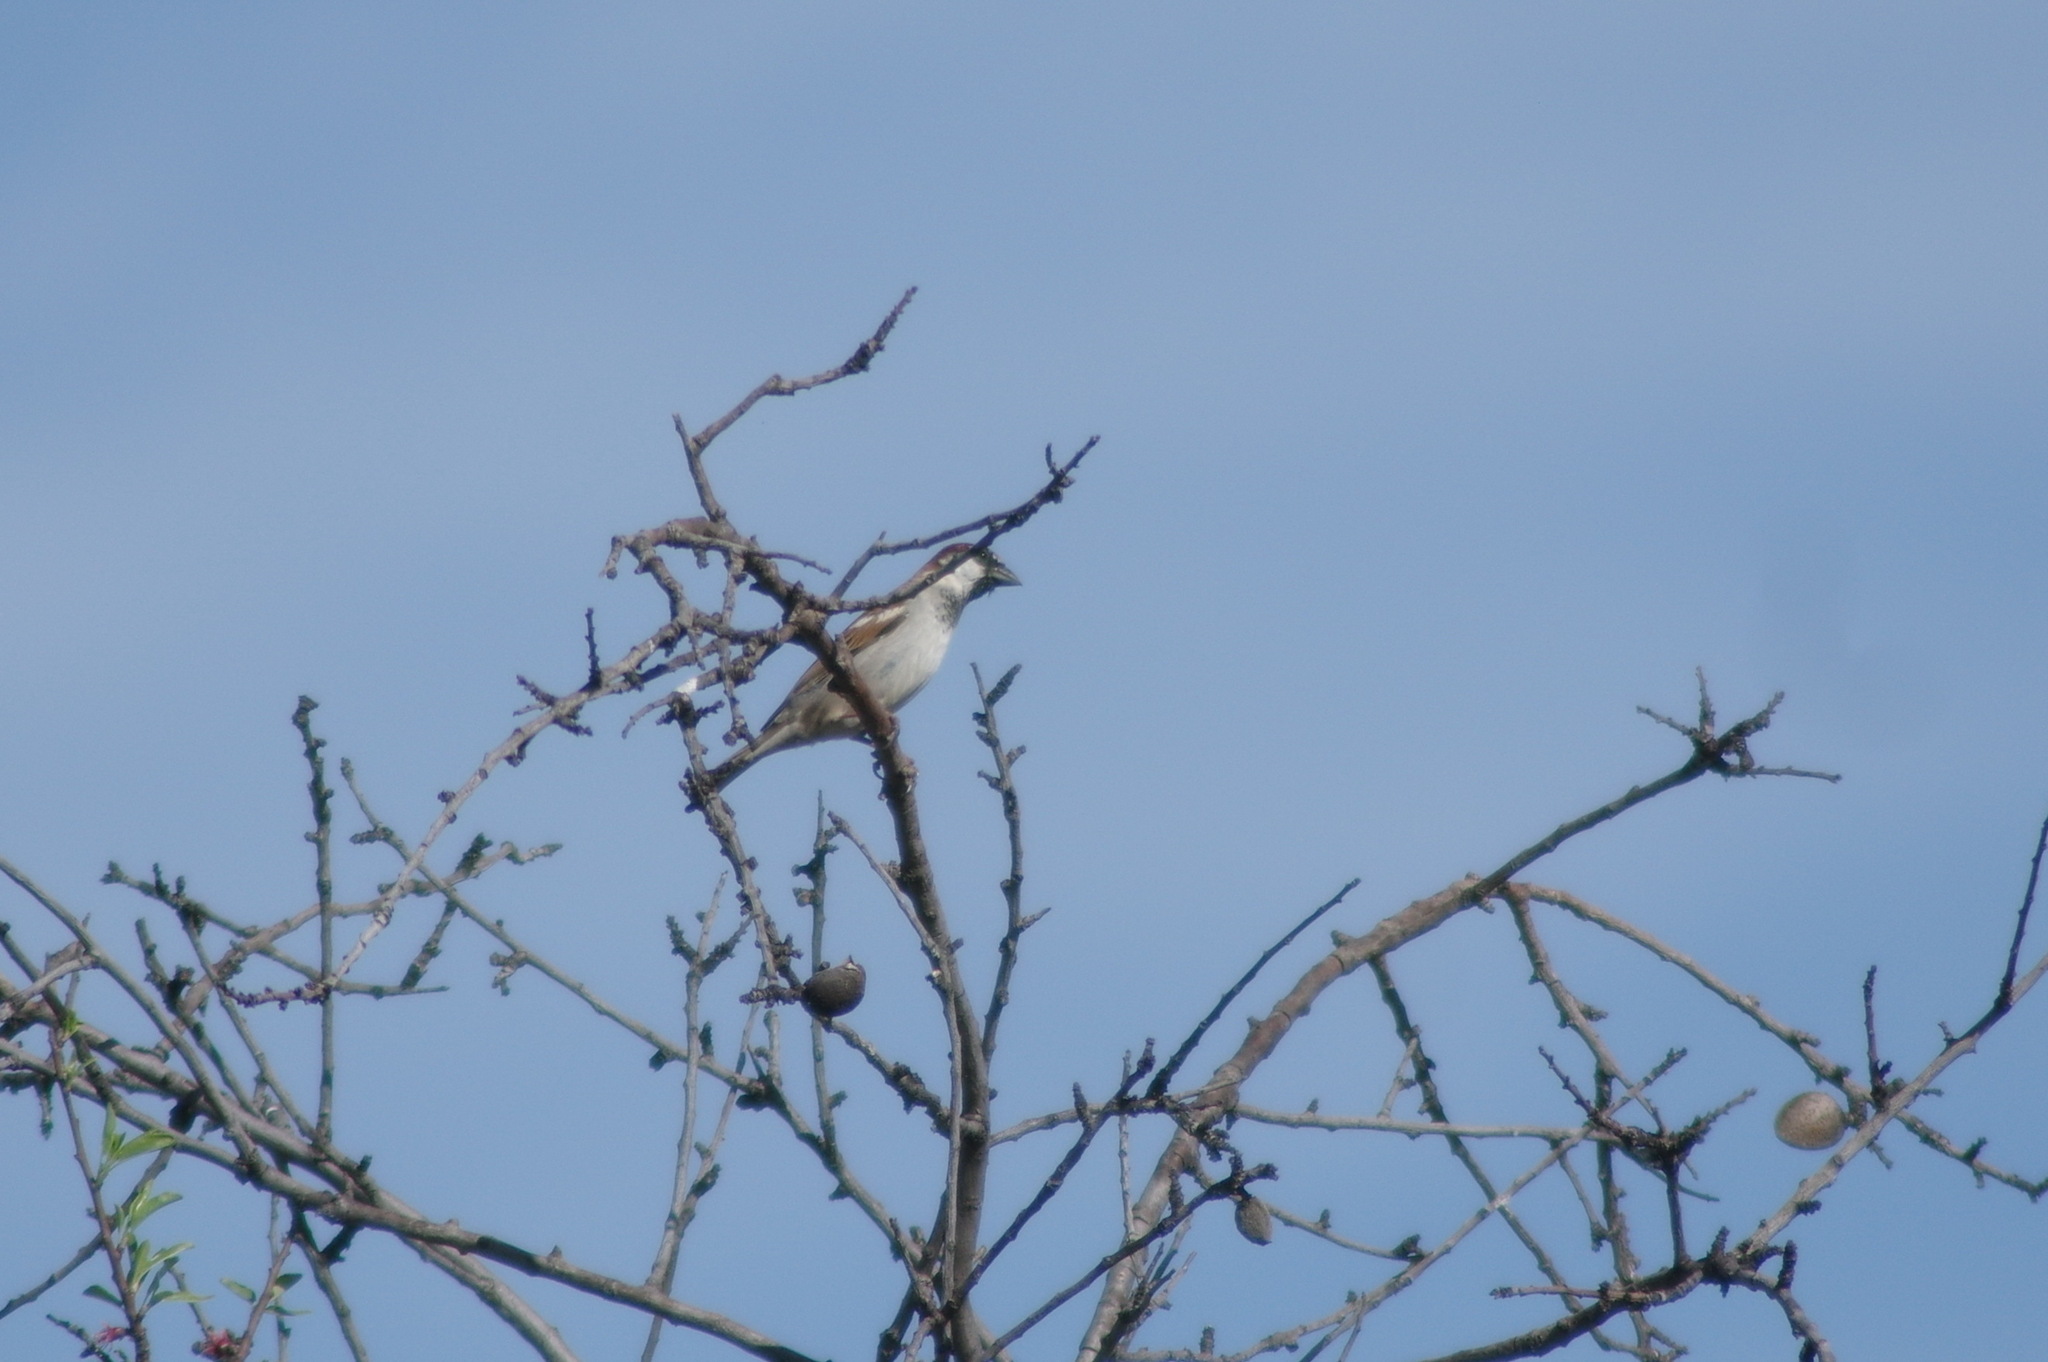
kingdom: Animalia
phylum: Chordata
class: Aves
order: Passeriformes
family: Passeridae
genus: Passer
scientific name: Passer domesticus
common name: House sparrow
